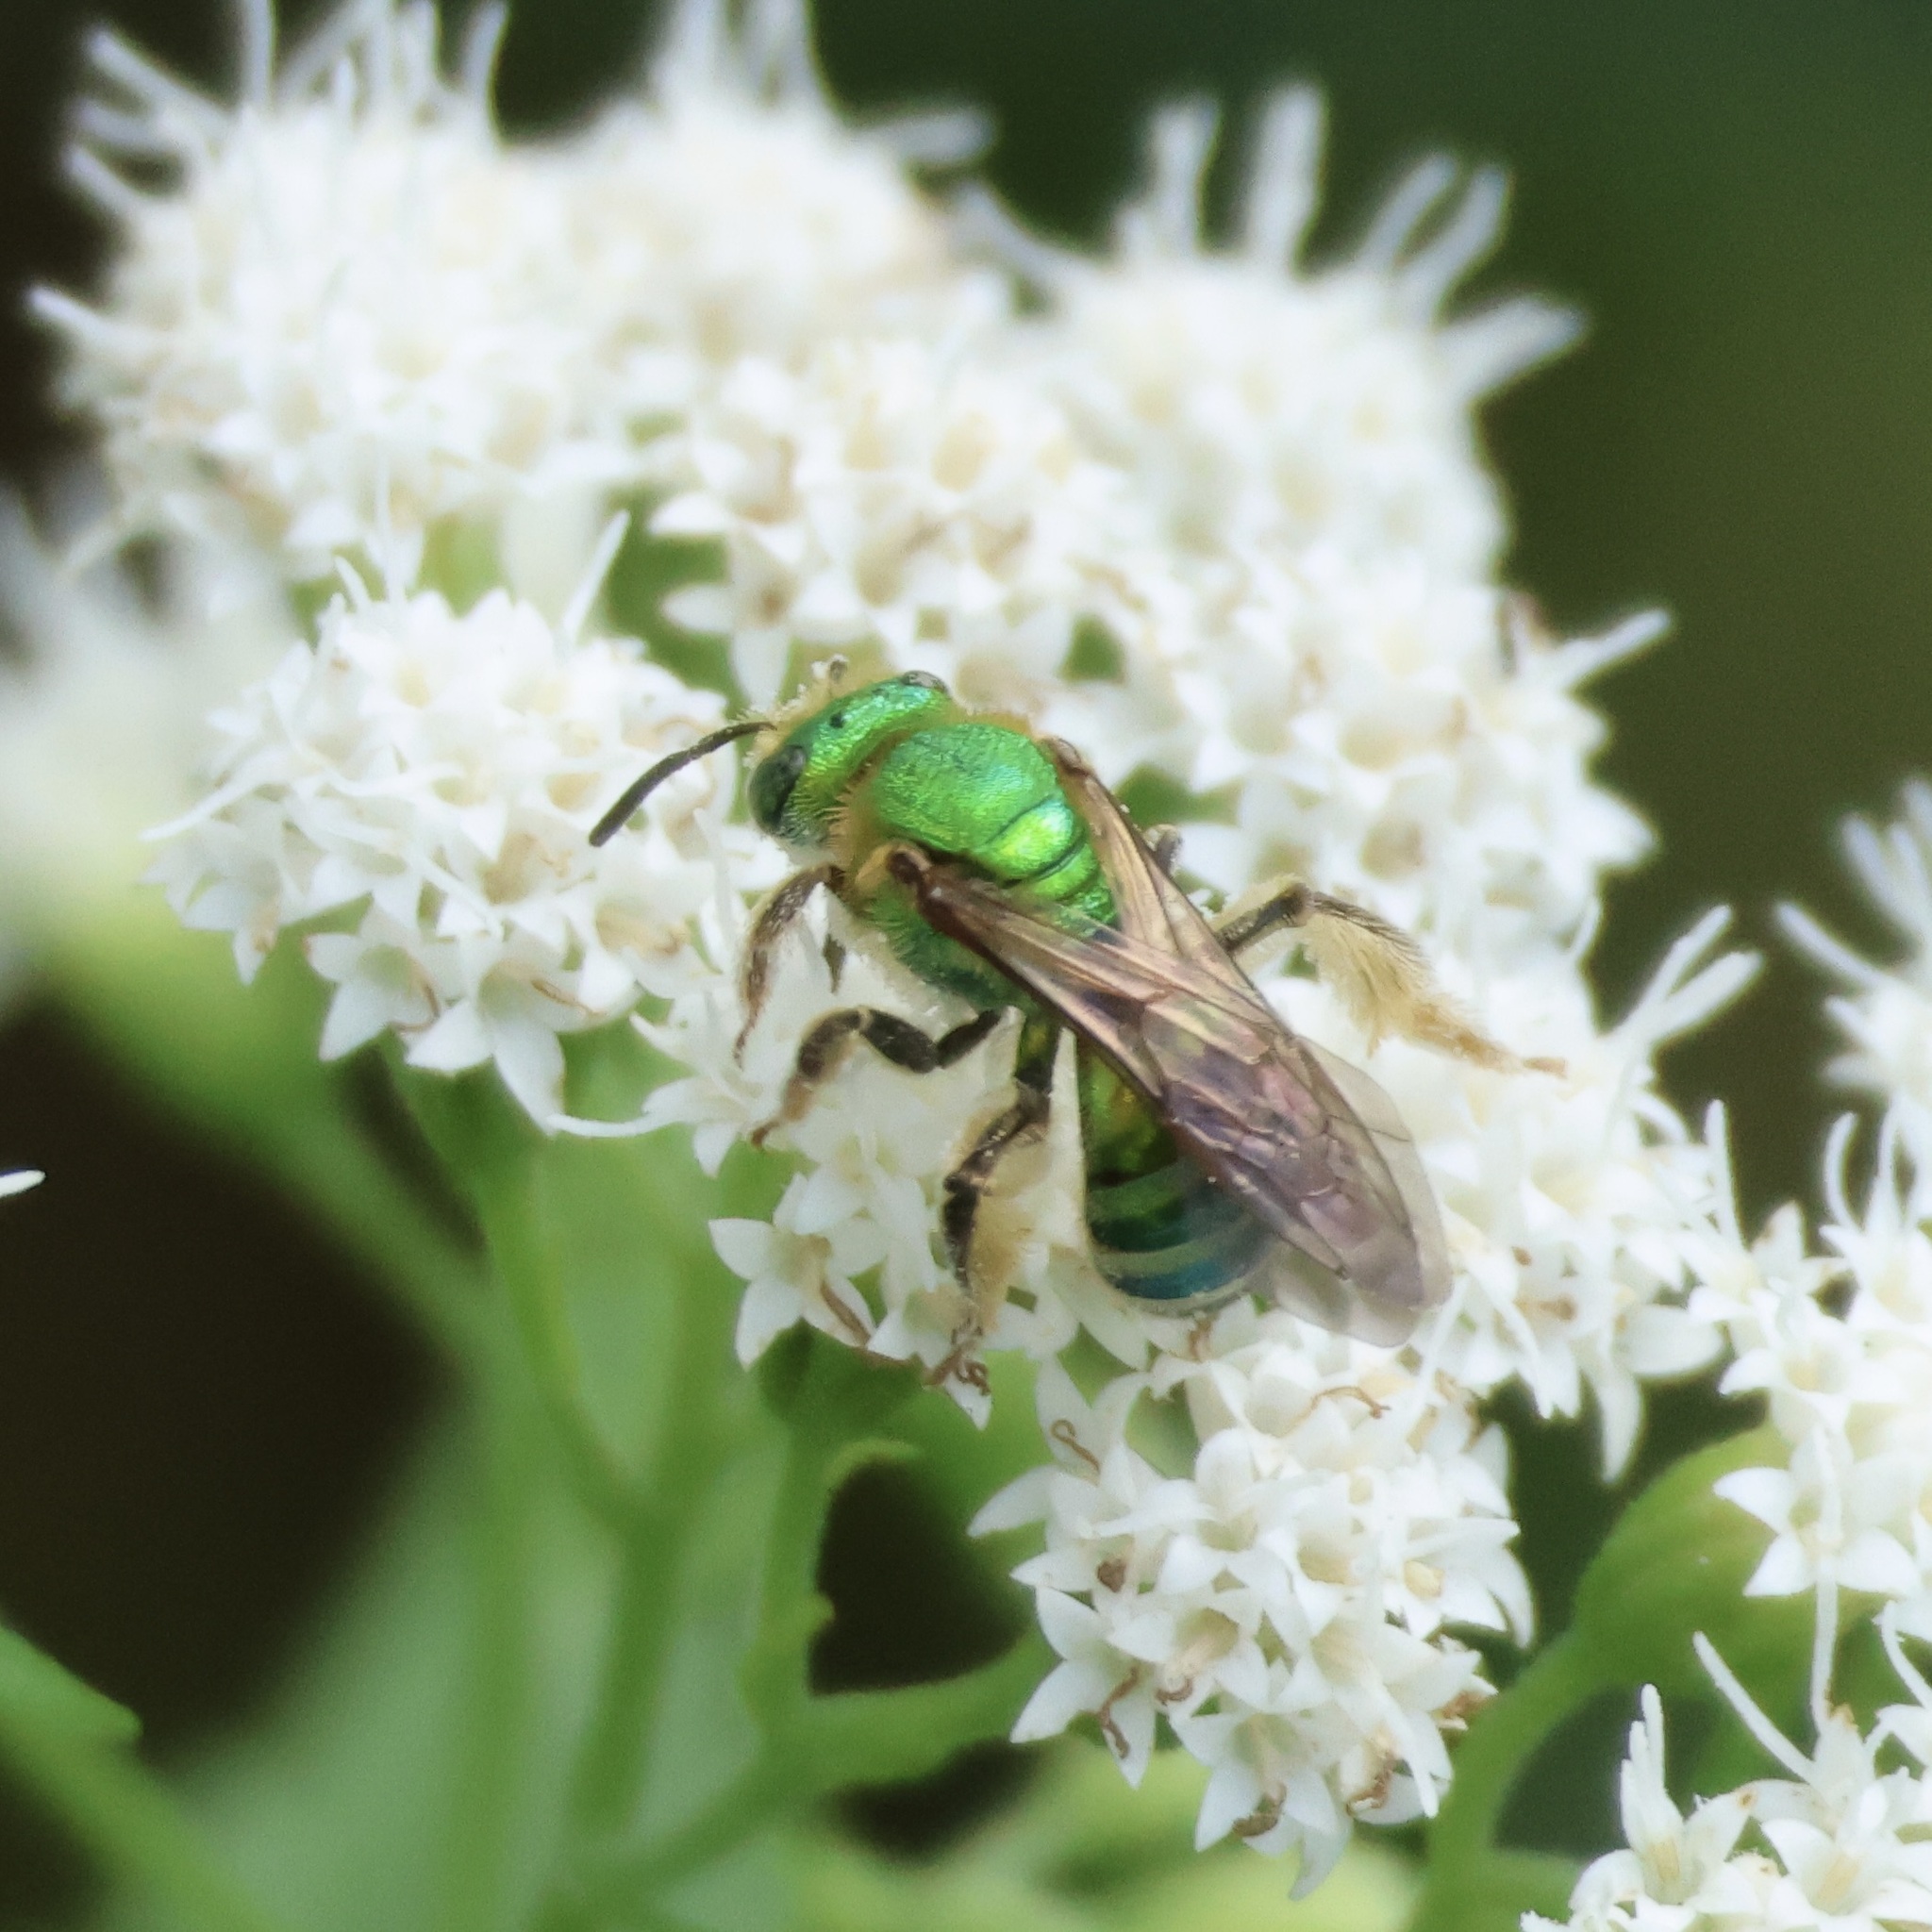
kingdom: Animalia
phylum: Arthropoda
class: Insecta
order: Hymenoptera
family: Halictidae
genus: Agapostemon
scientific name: Agapostemon sericeus
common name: Silky striped sweat bee
